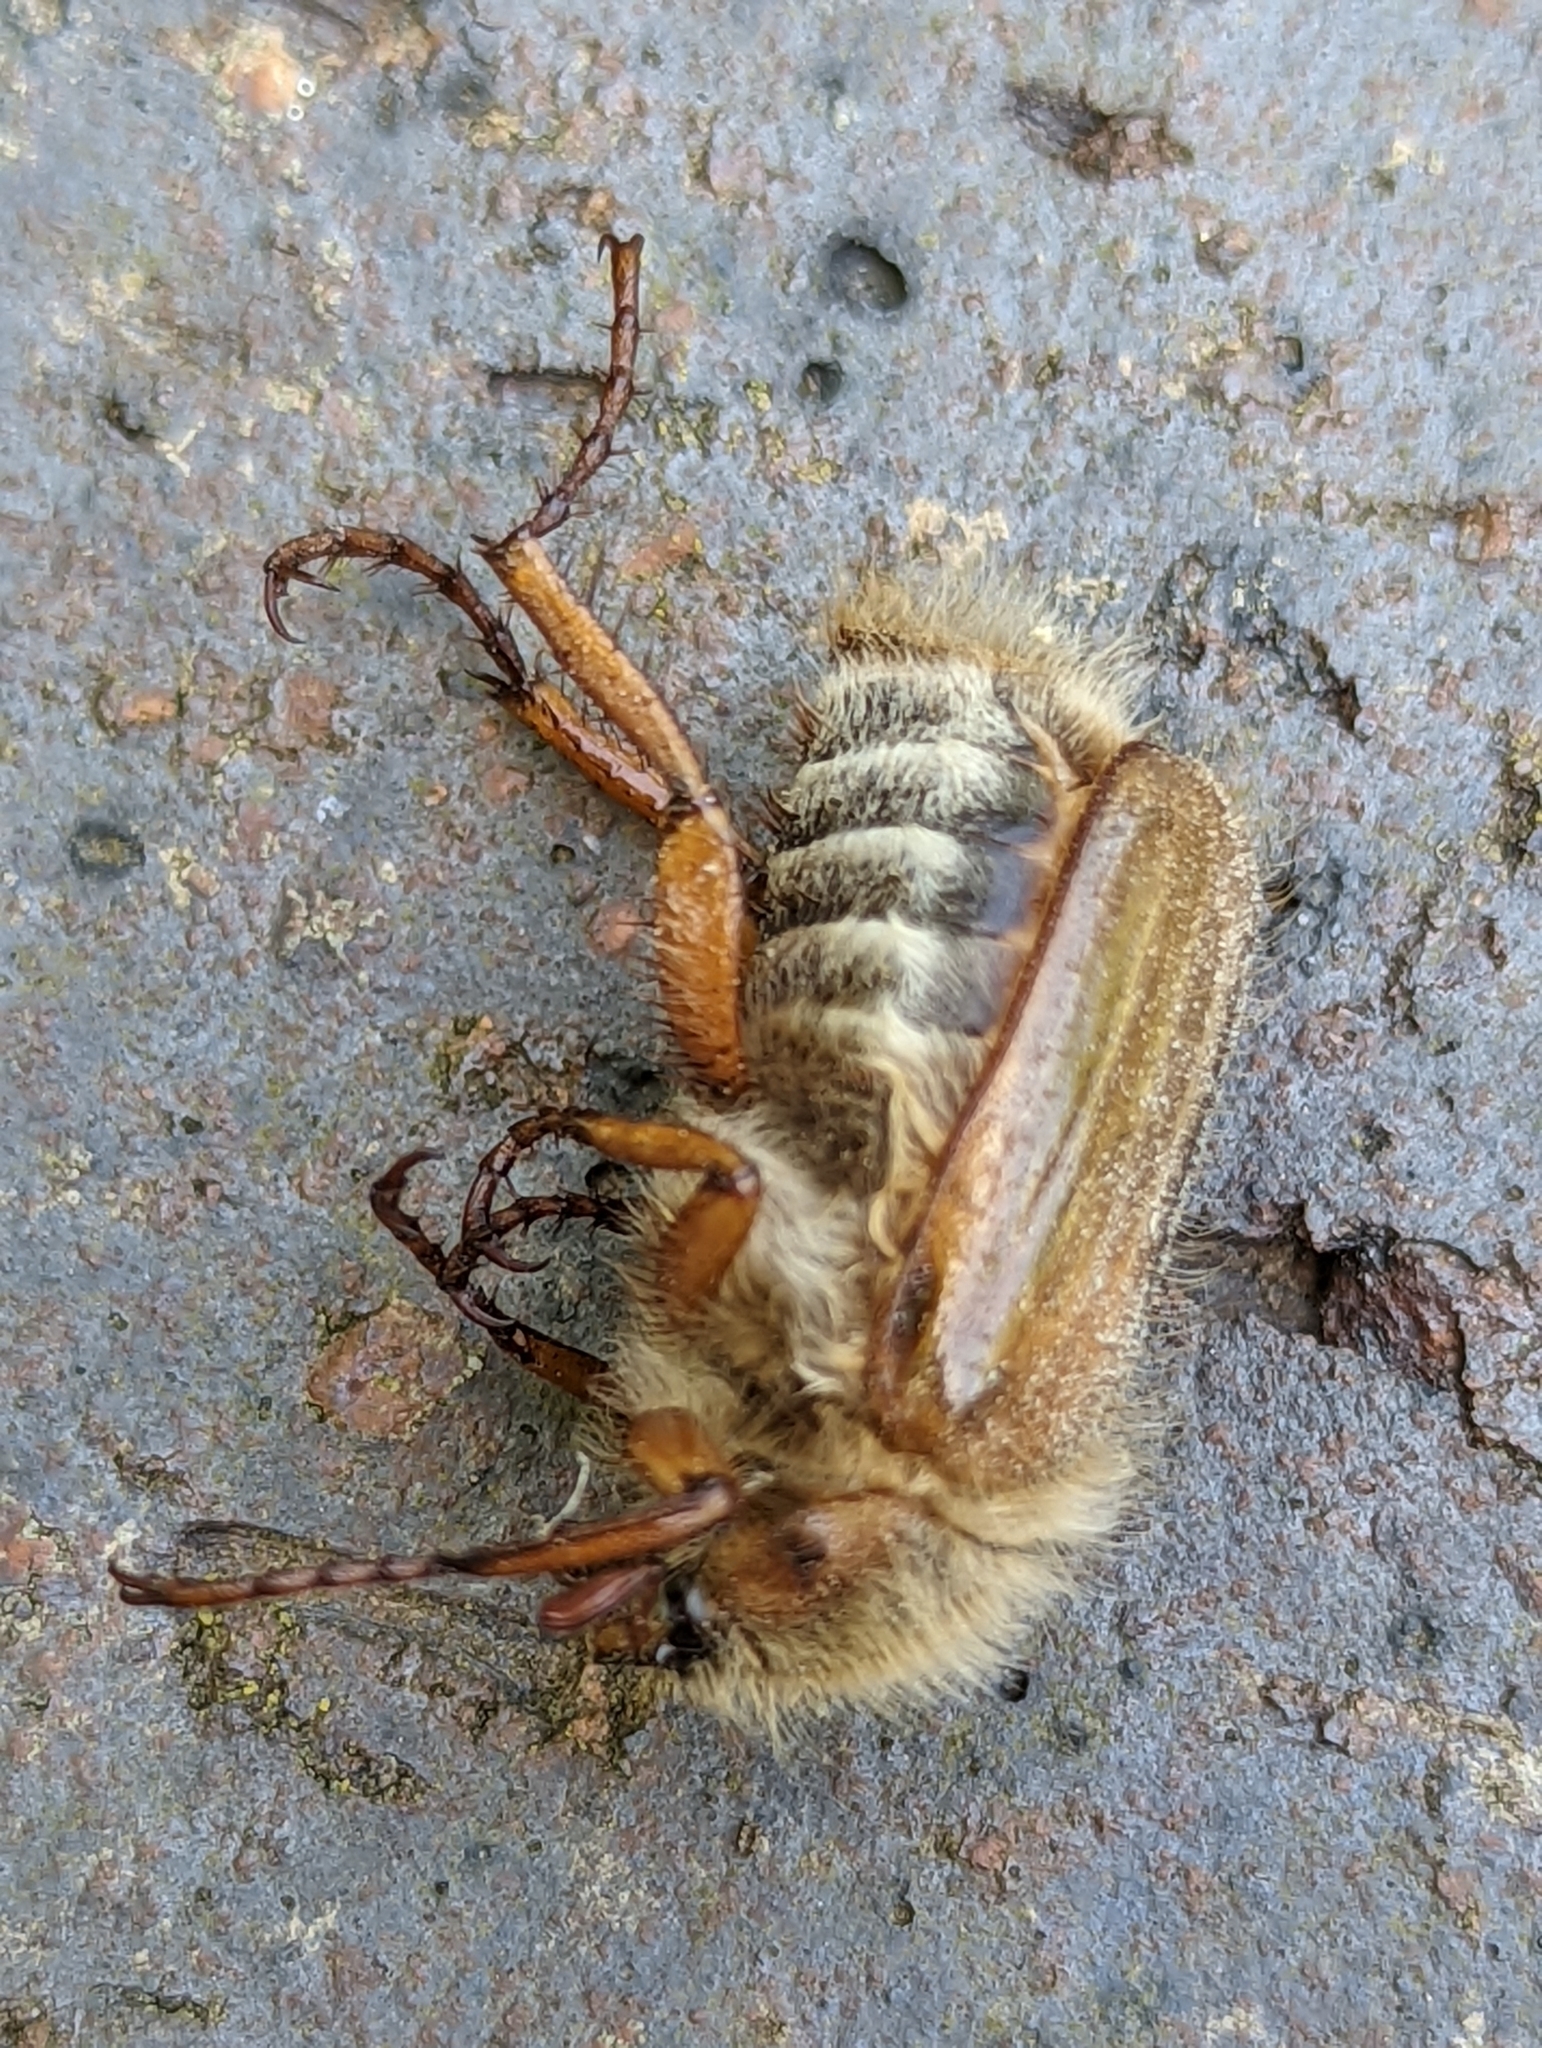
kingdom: Animalia
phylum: Arthropoda
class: Insecta
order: Coleoptera
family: Scarabaeidae
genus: Amphimallon
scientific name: Amphimallon solstitiale
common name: Summer chafer
